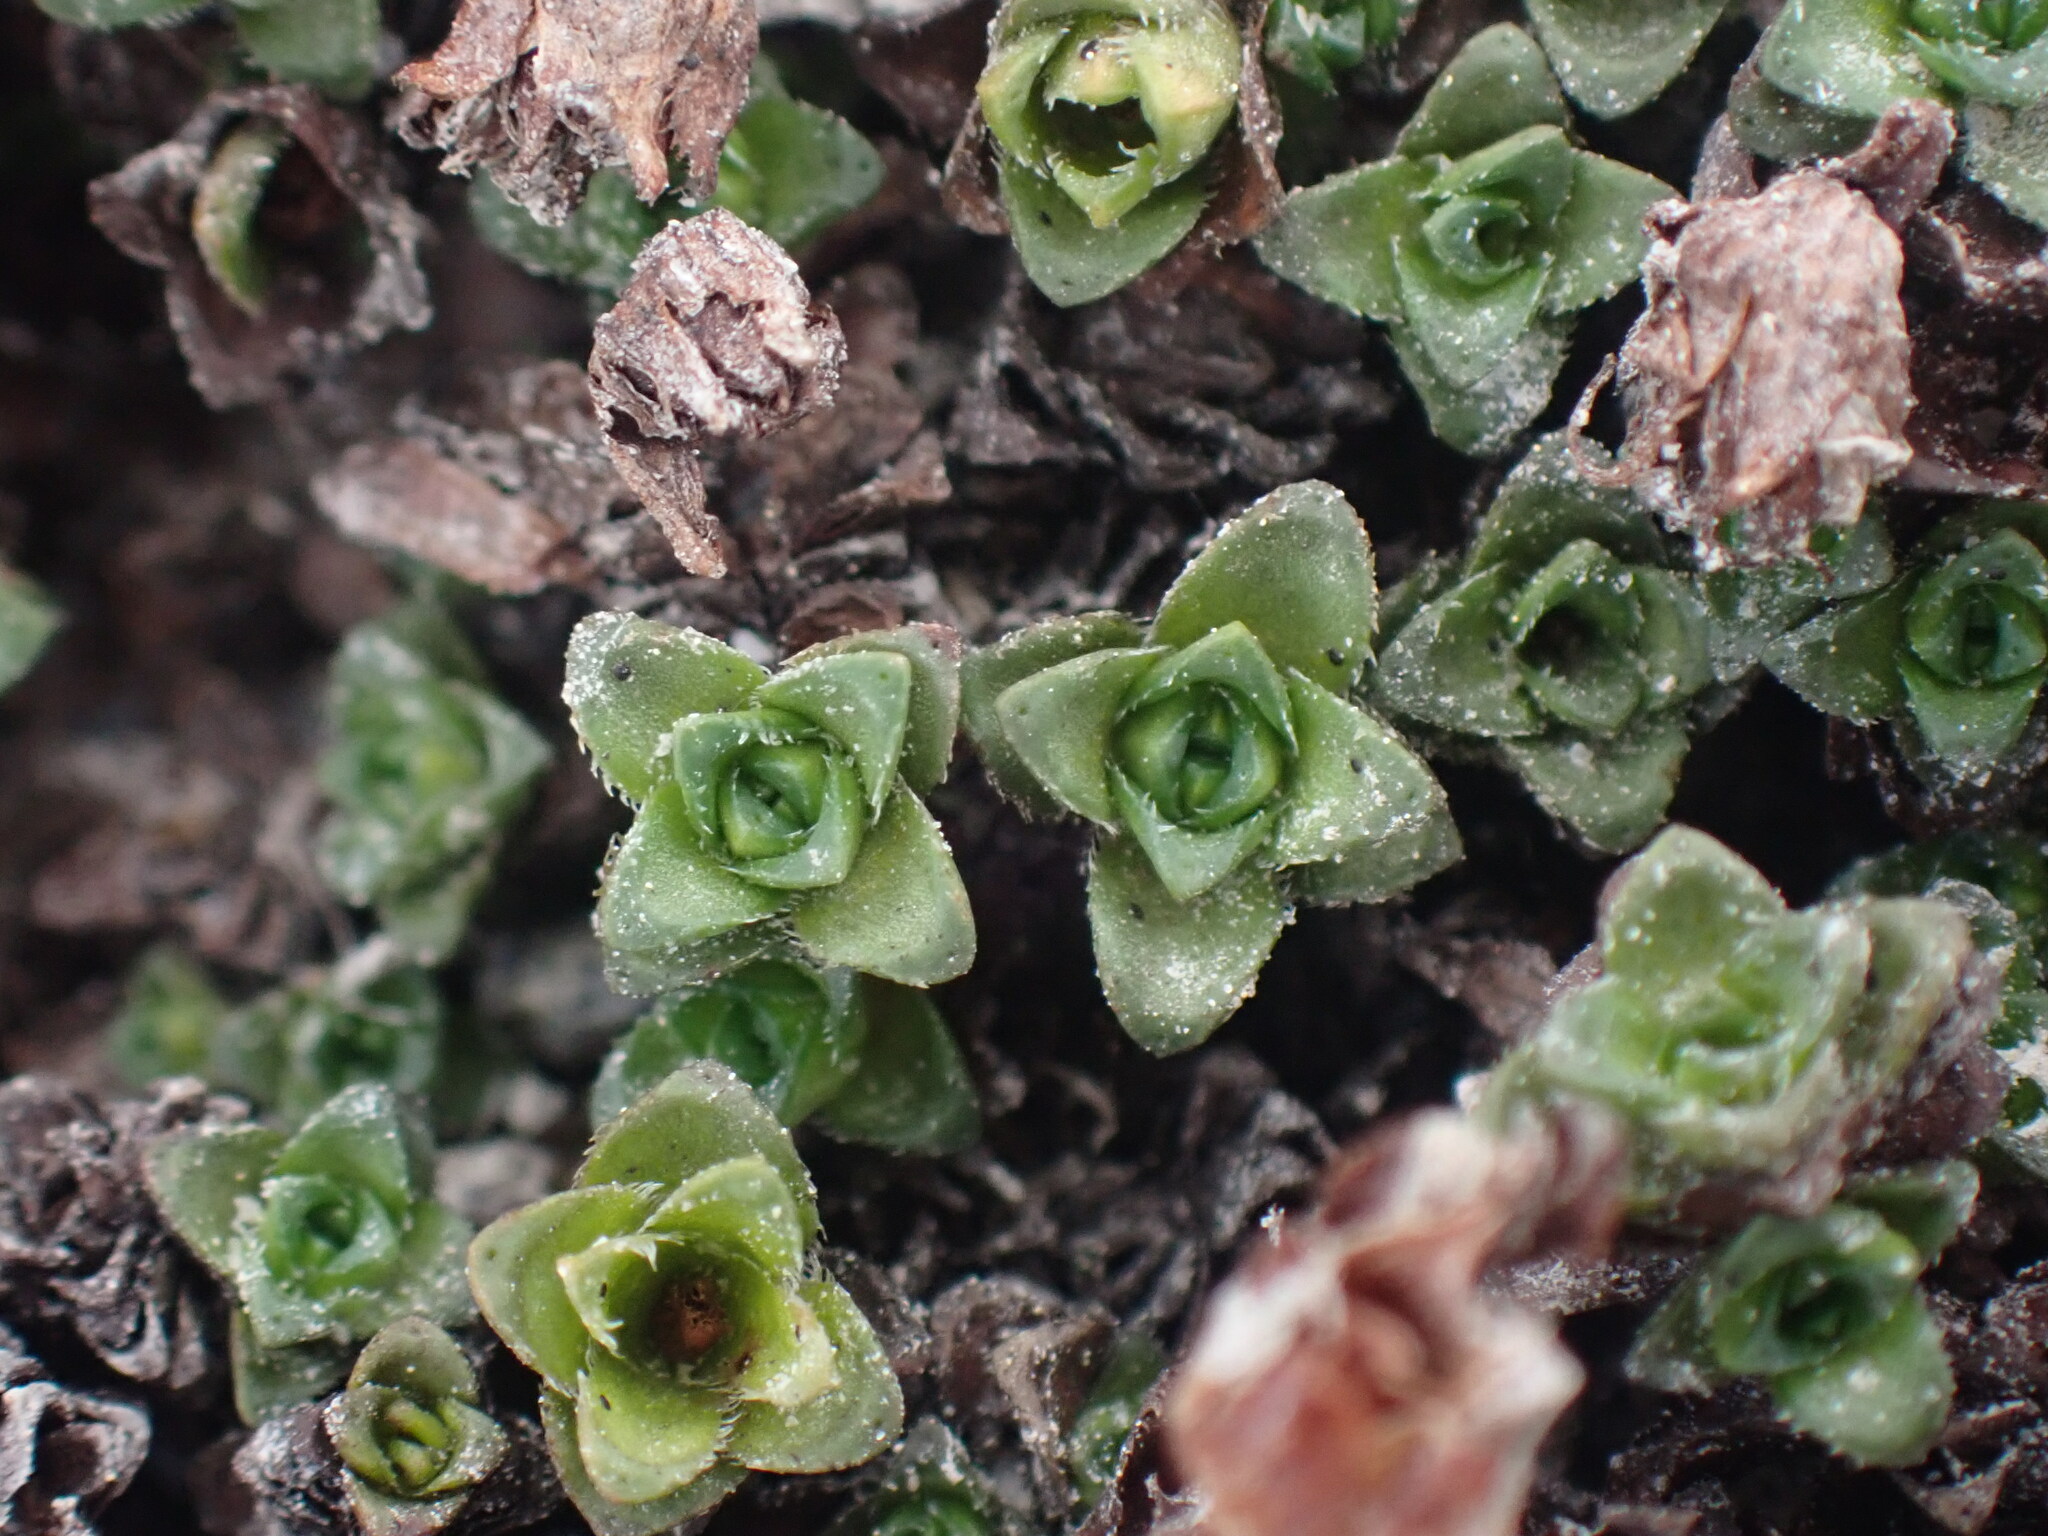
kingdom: Plantae
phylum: Tracheophyta
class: Magnoliopsida
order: Saxifragales
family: Saxifragaceae
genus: Saxifraga
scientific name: Saxifraga oppositifolia
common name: Purple saxifrage
